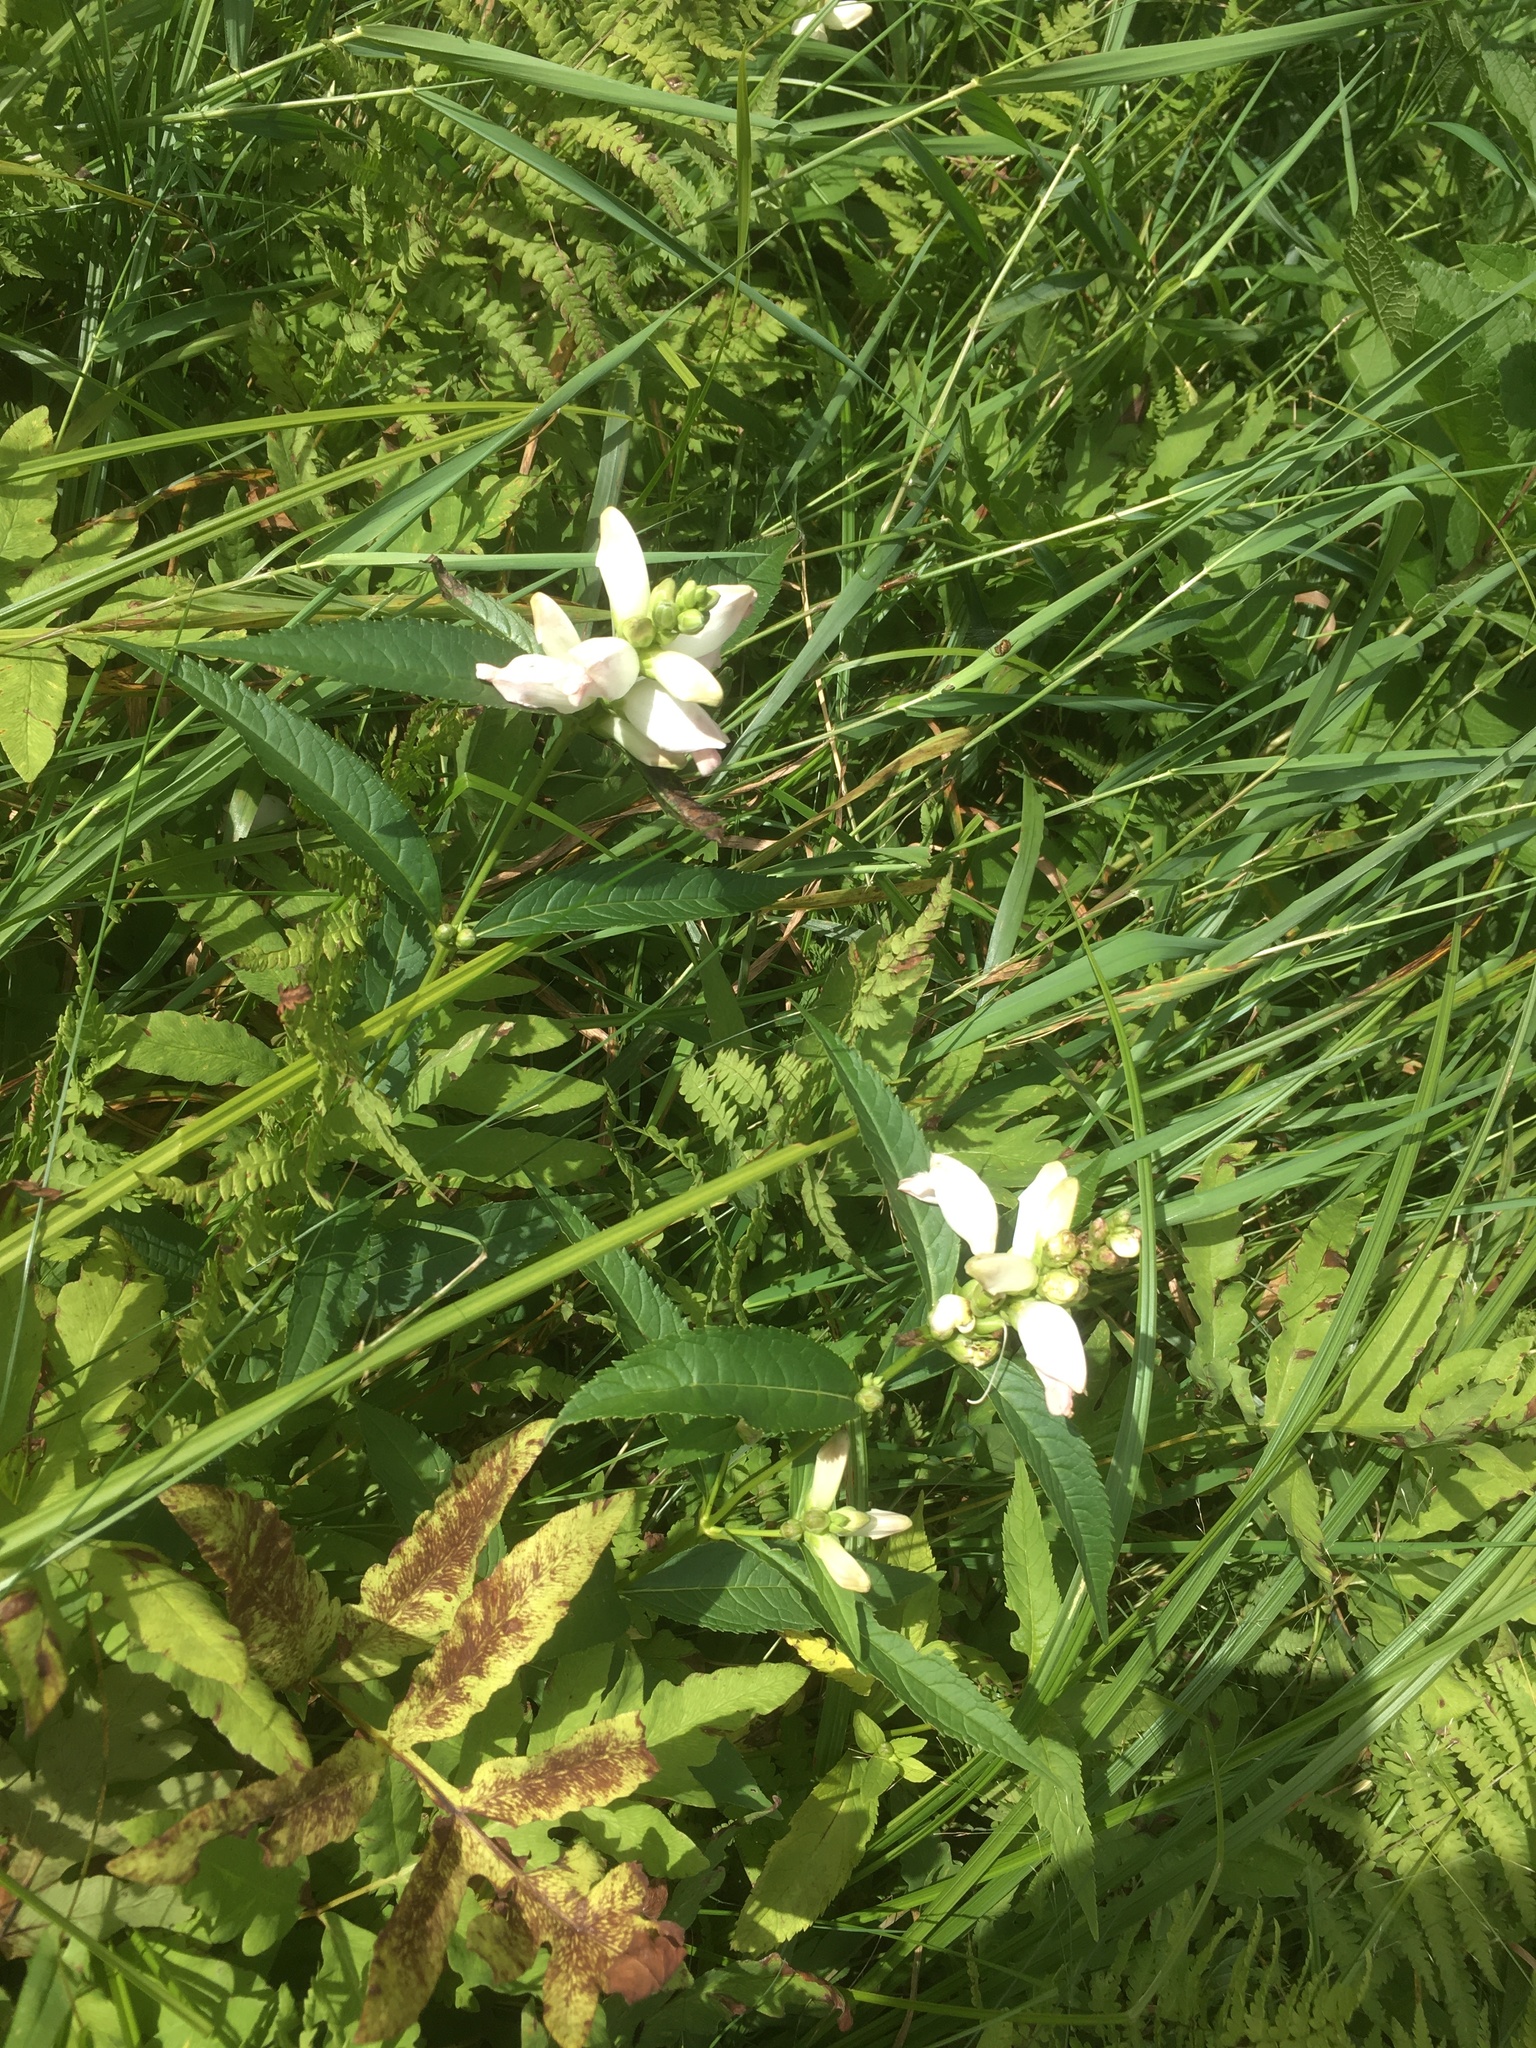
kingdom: Plantae
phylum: Tracheophyta
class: Magnoliopsida
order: Lamiales
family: Plantaginaceae
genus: Chelone
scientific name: Chelone glabra
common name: Snakehead
